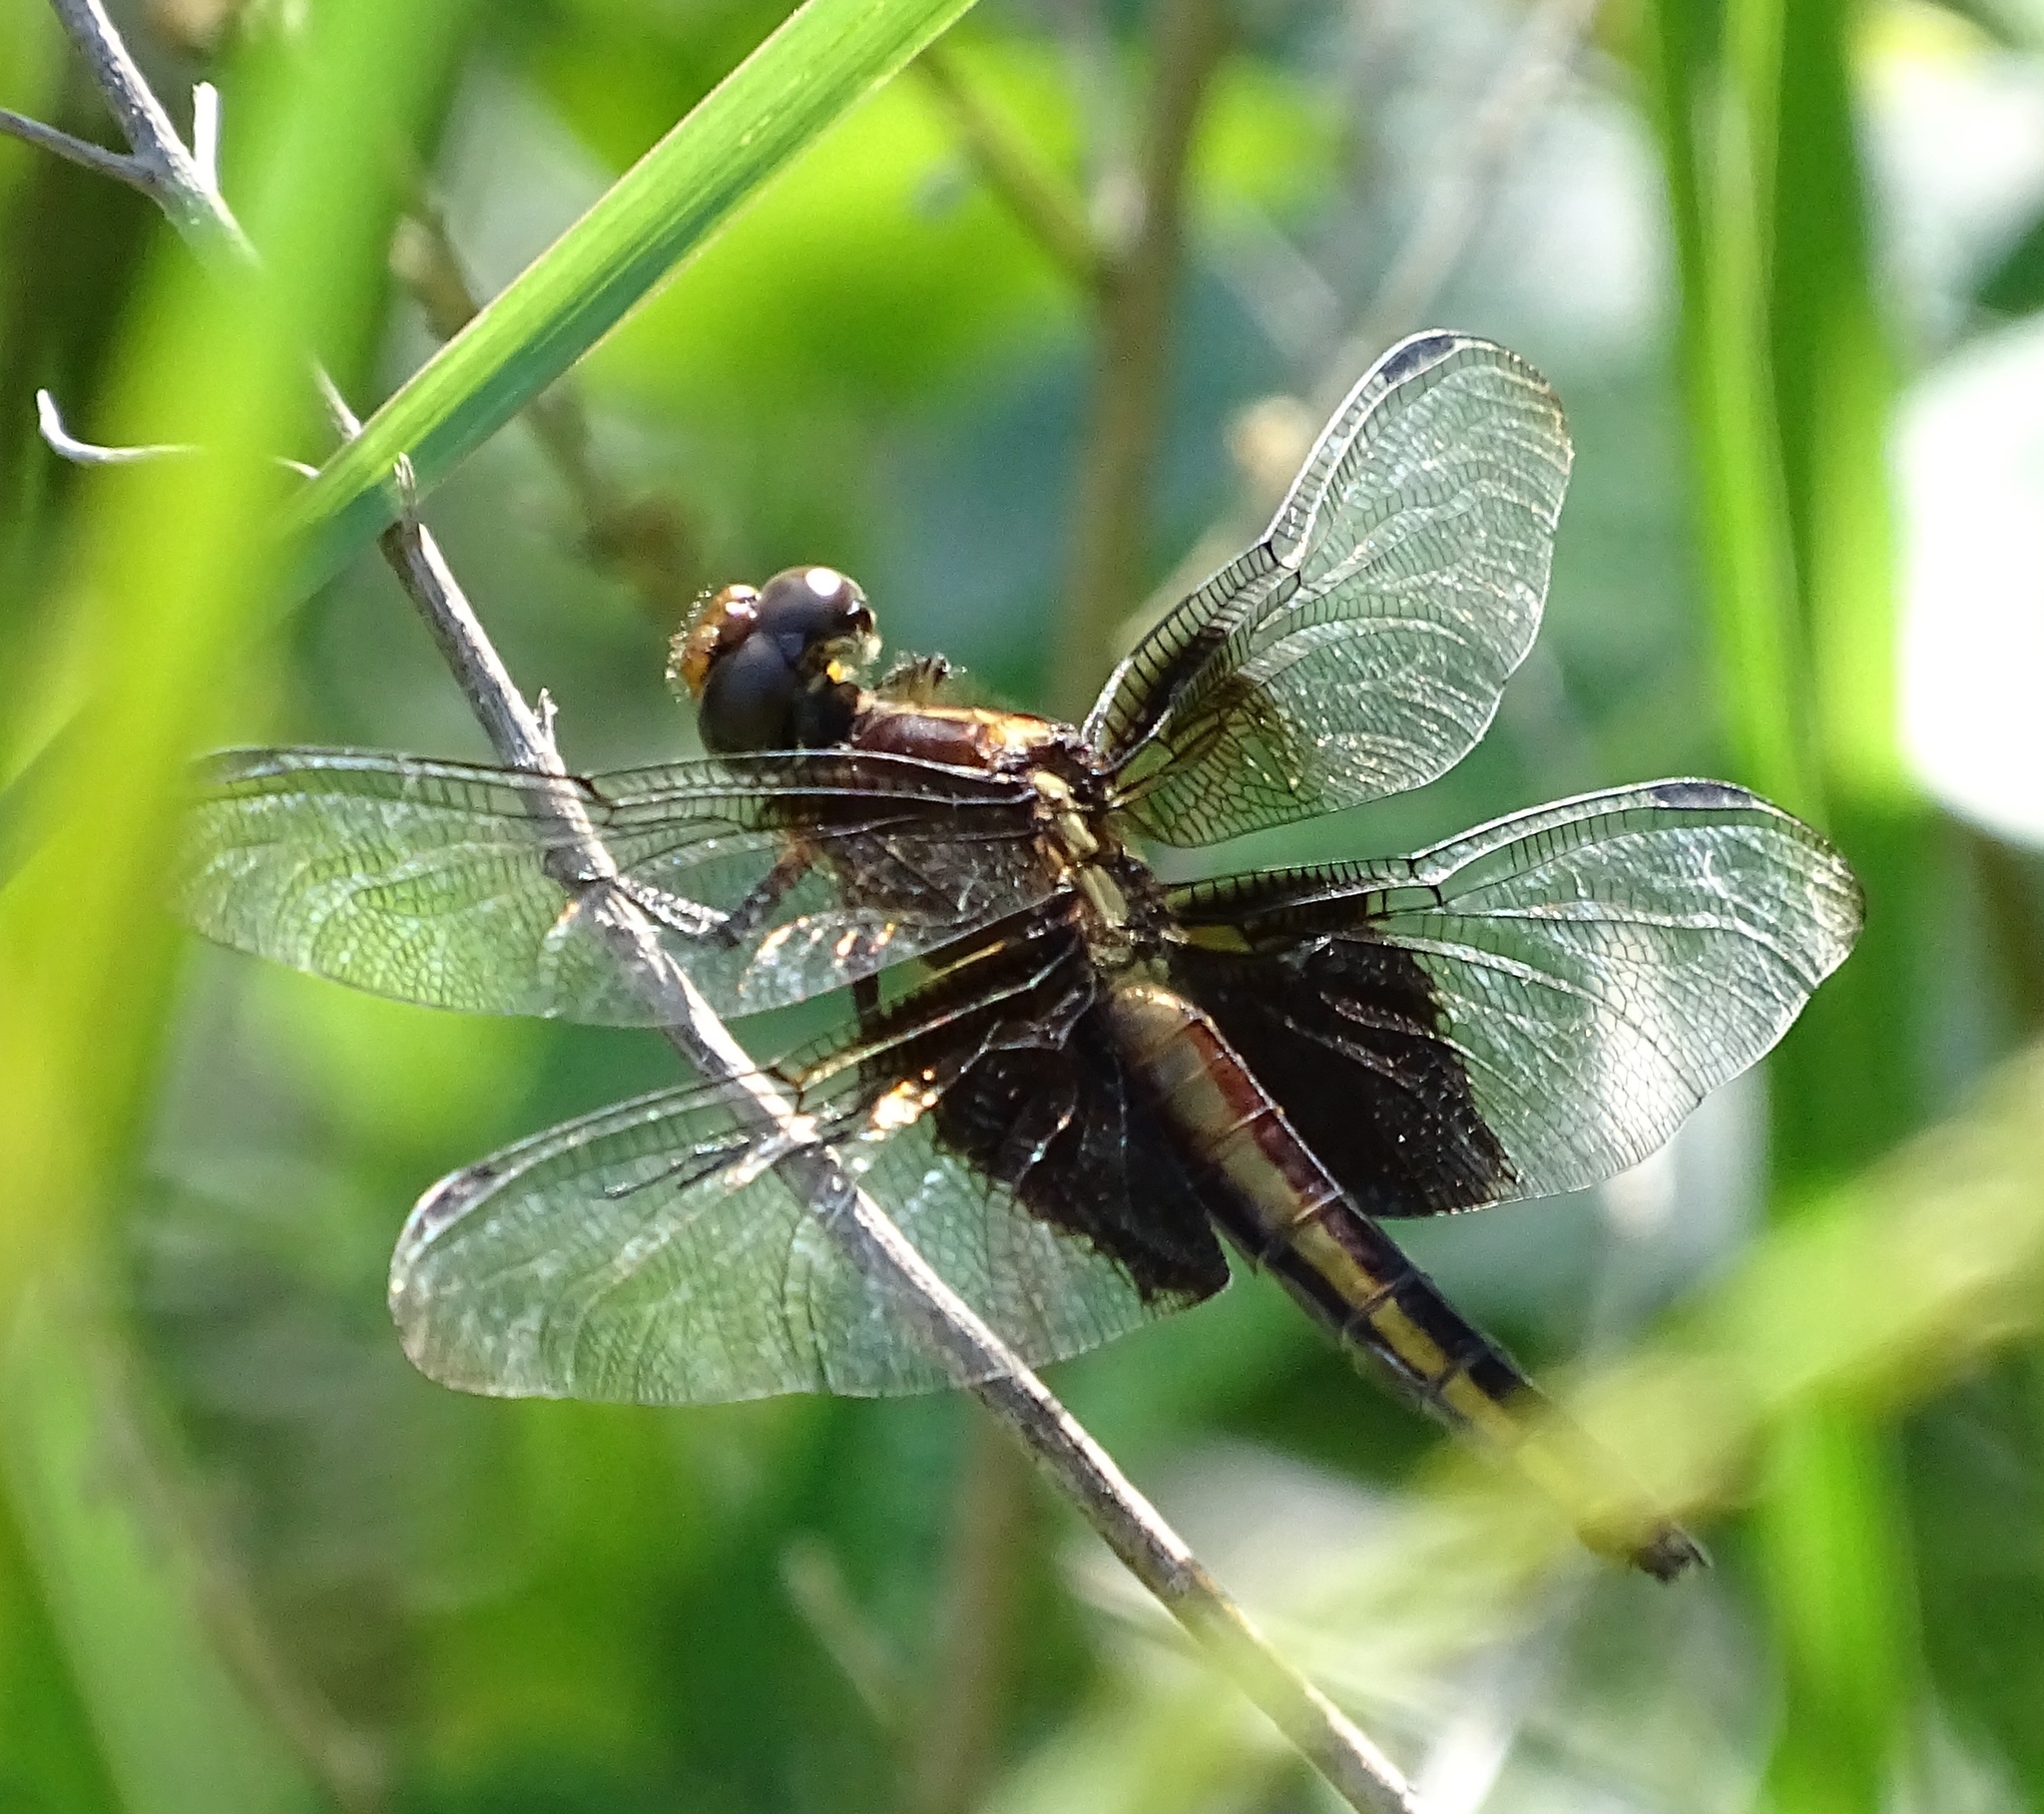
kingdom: Animalia
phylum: Arthropoda
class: Insecta
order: Odonata
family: Libellulidae
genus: Libellula
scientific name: Libellula luctuosa
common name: Widow skimmer
